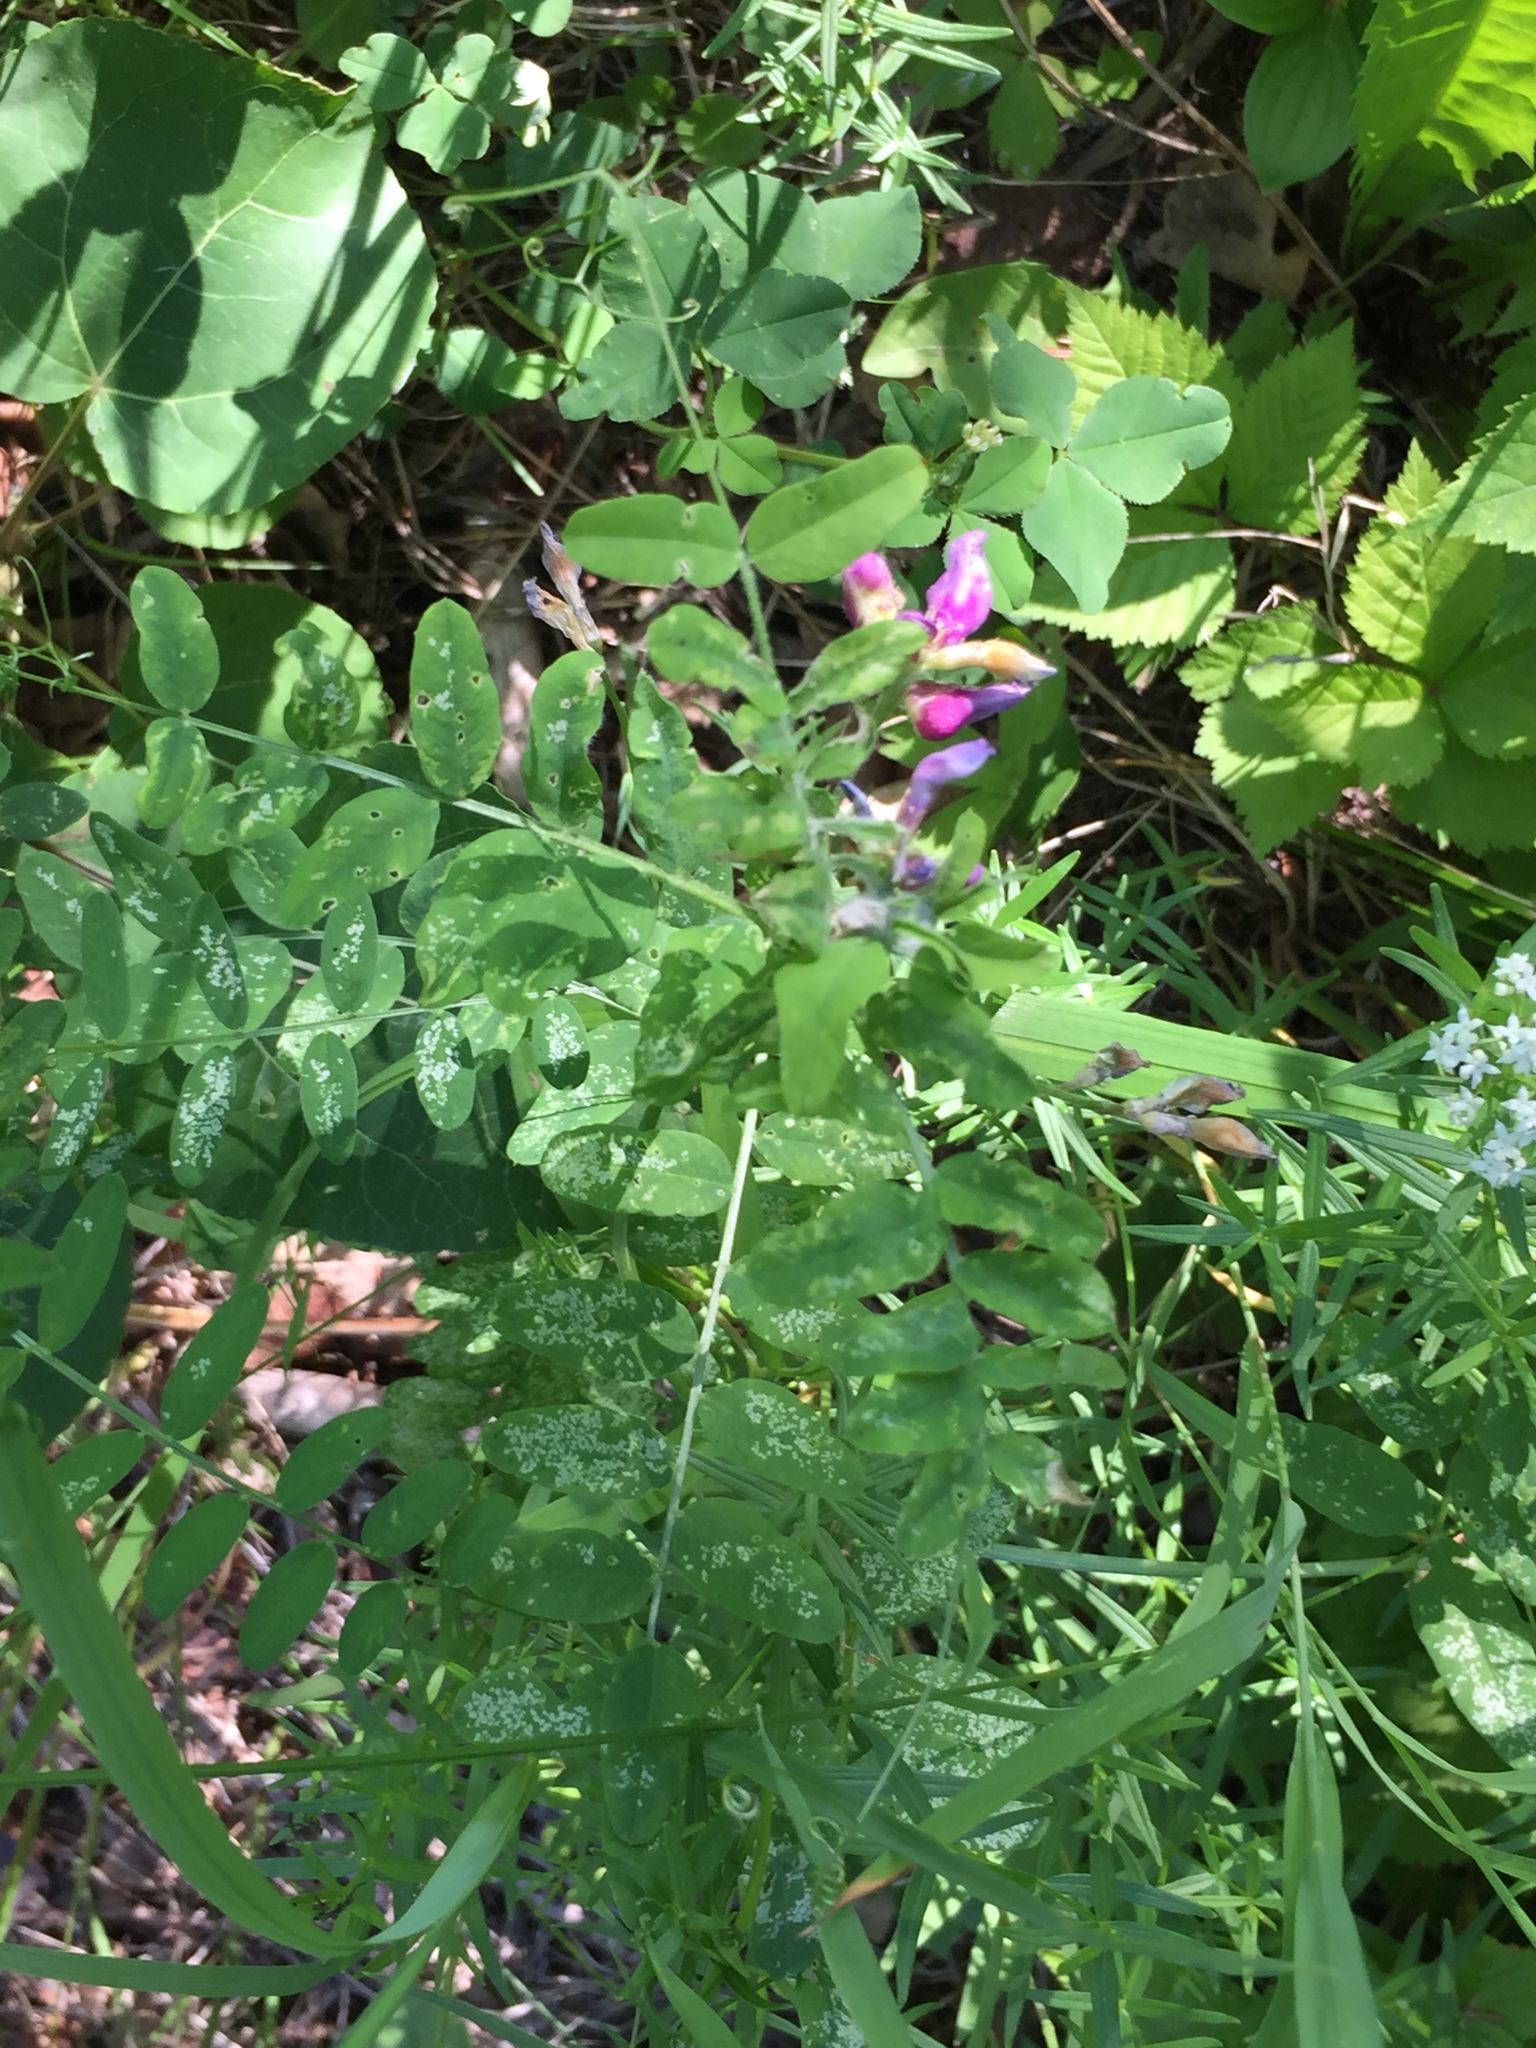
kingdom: Plantae
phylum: Tracheophyta
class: Magnoliopsida
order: Fabales
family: Fabaceae
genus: Vicia
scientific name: Vicia americana
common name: American vetch
